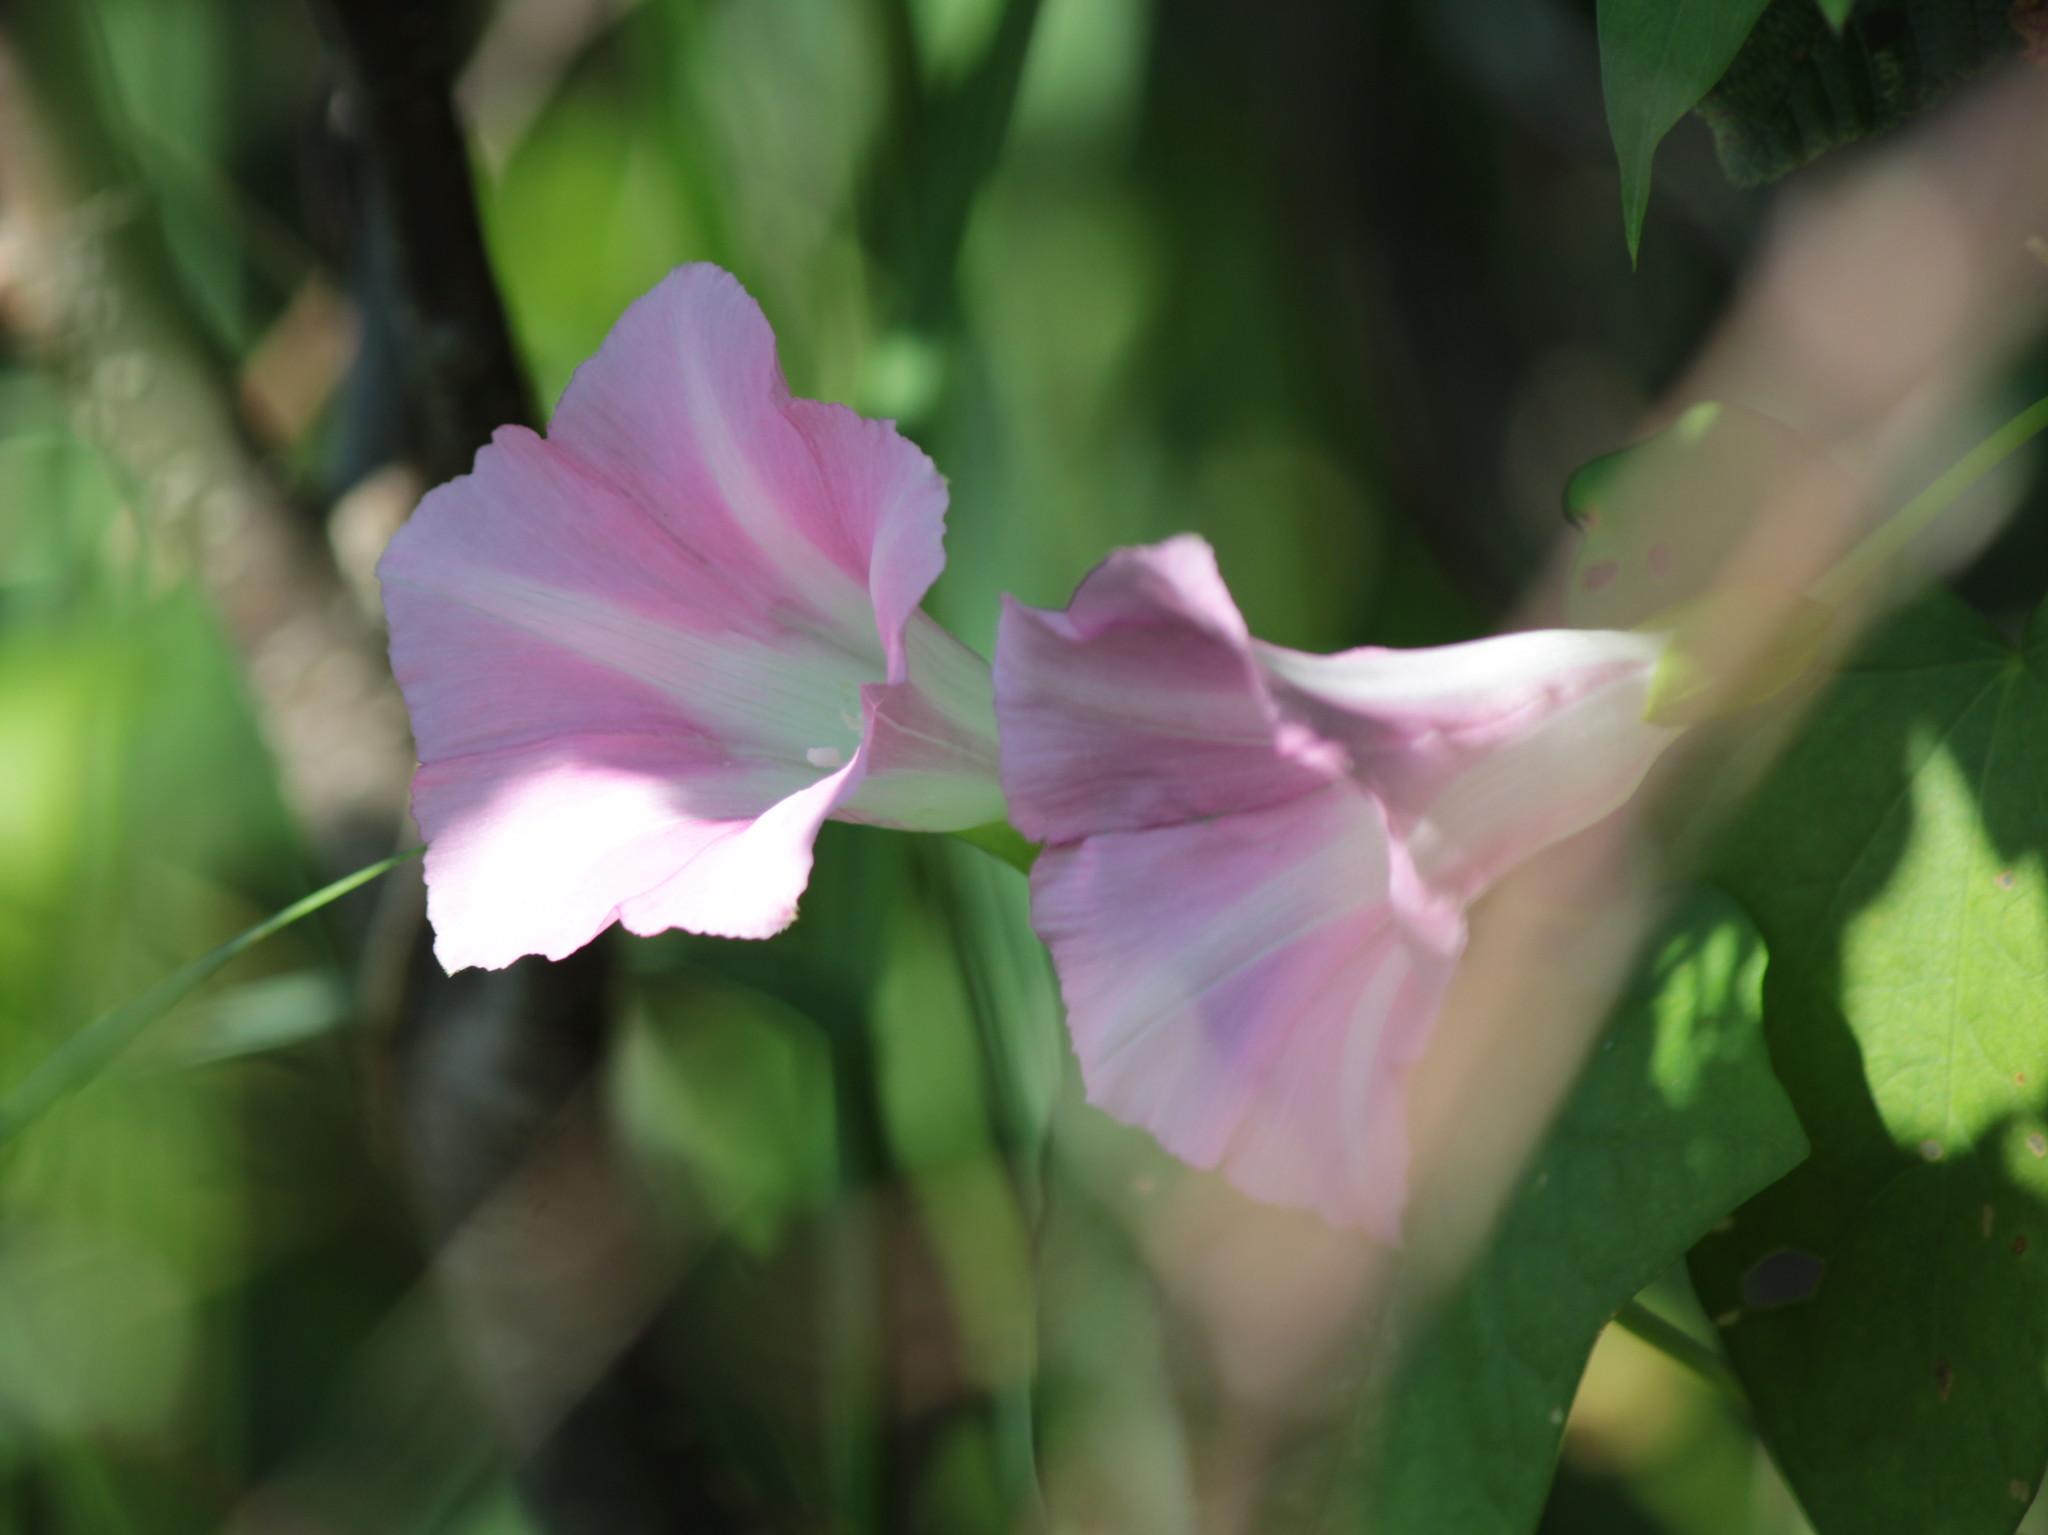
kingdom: Plantae
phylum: Tracheophyta
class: Magnoliopsida
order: Solanales
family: Convolvulaceae
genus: Calystegia
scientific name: Calystegia sepium
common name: Hedge bindweed
